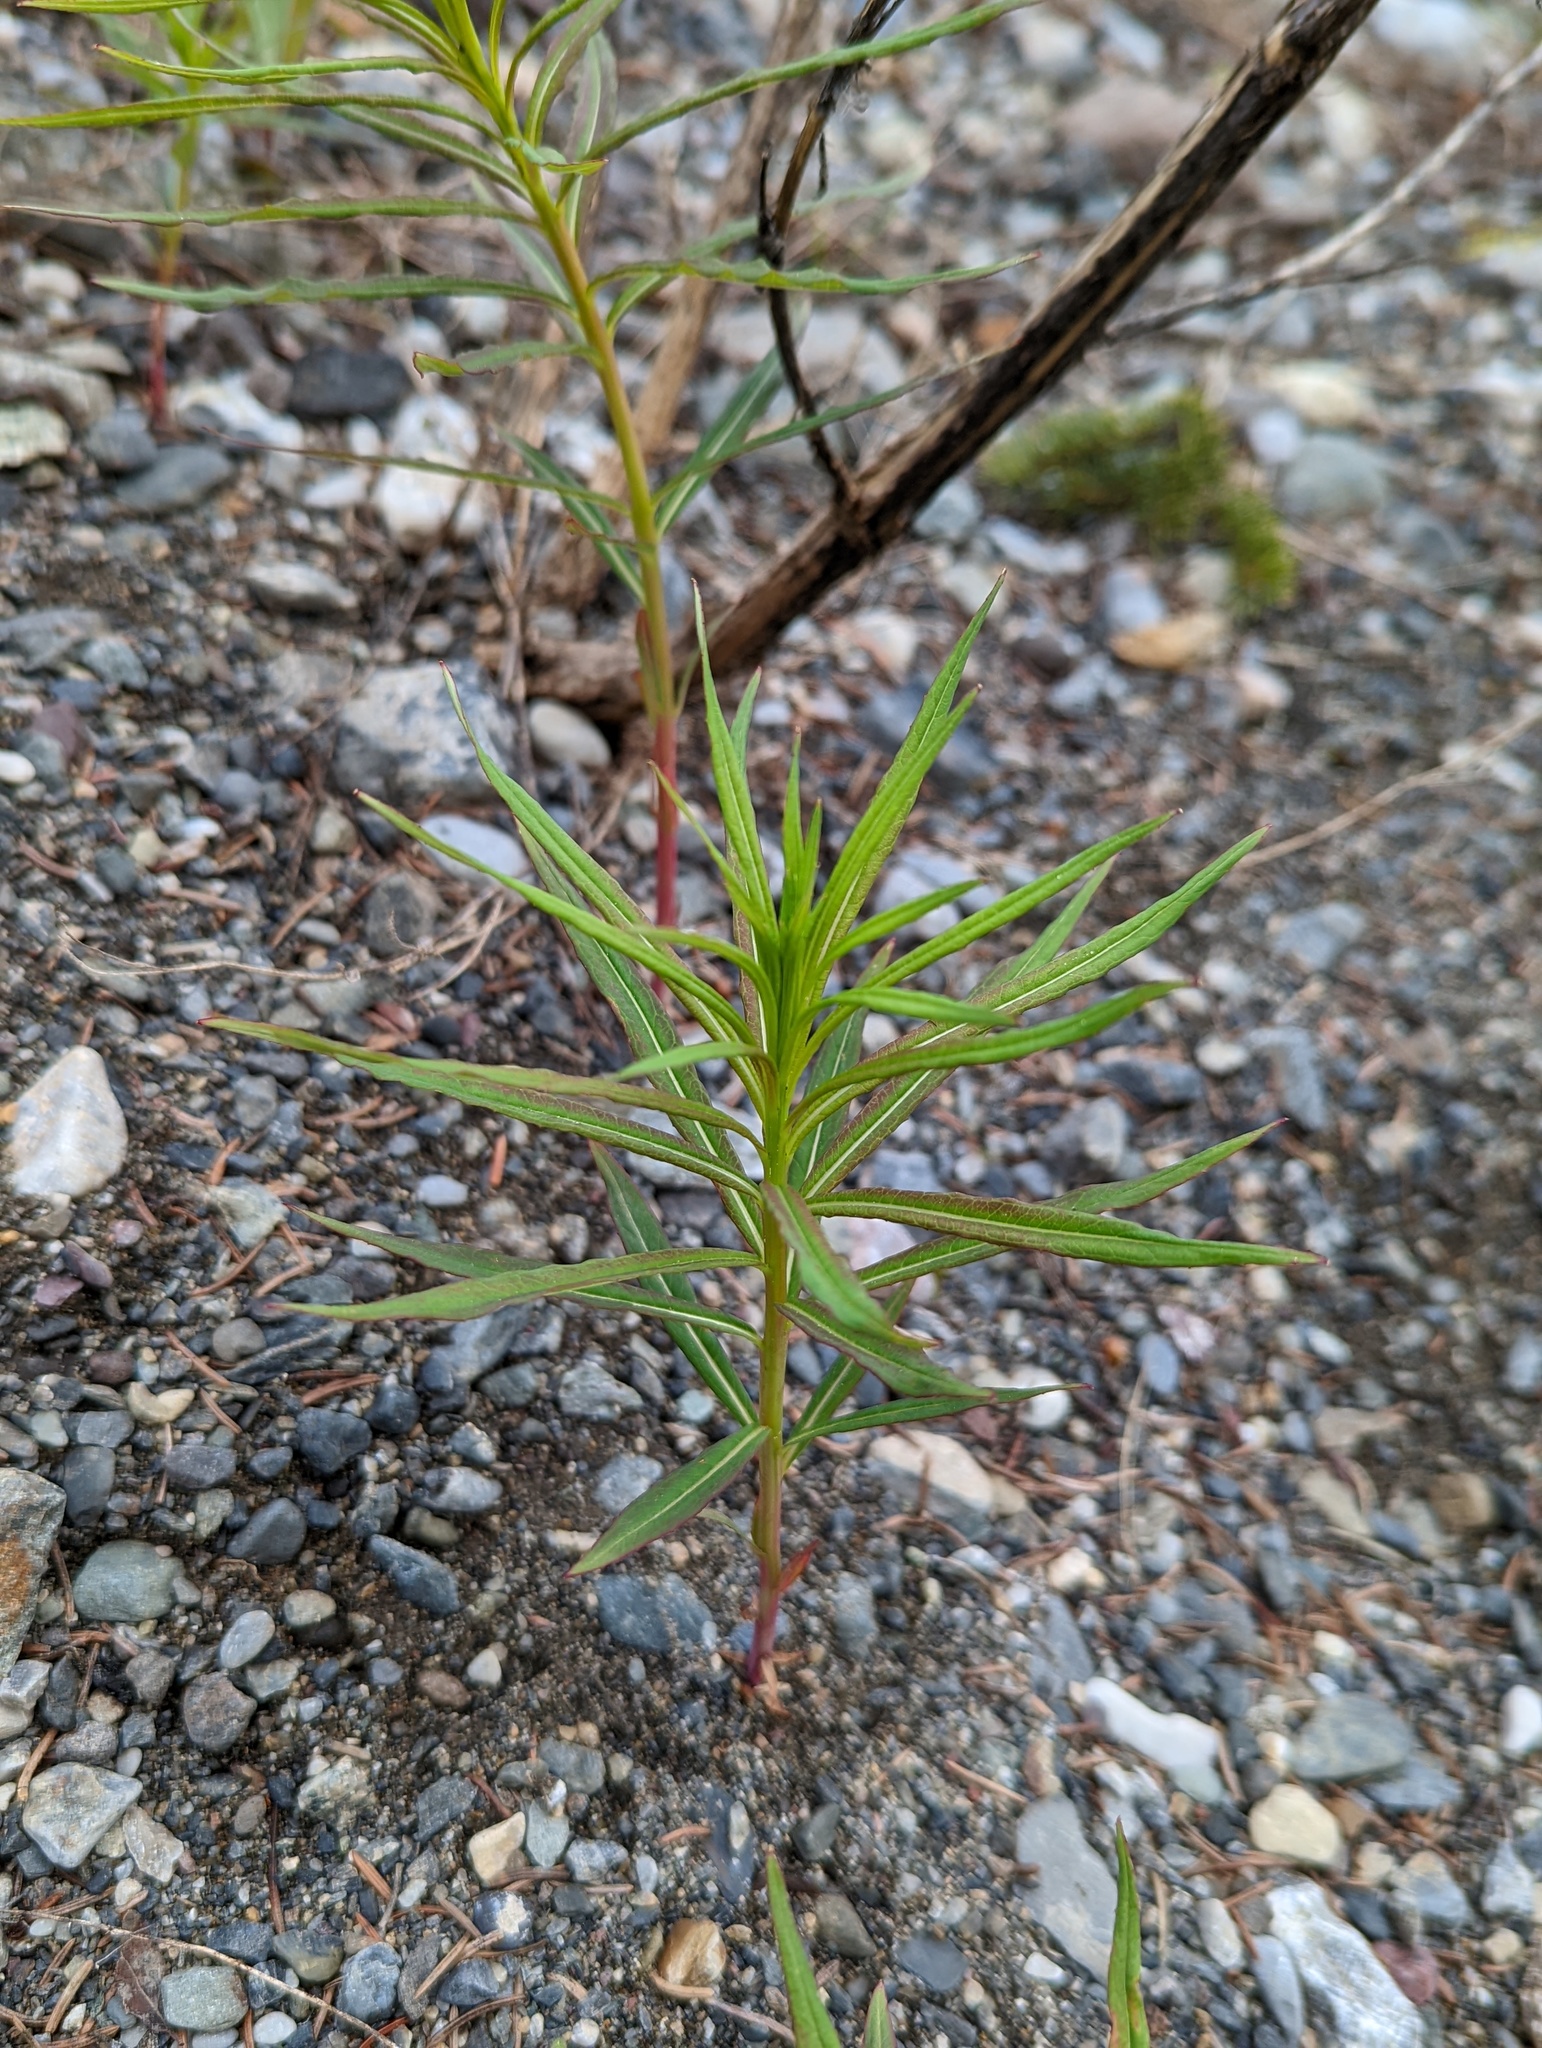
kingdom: Plantae
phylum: Tracheophyta
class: Magnoliopsida
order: Myrtales
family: Onagraceae
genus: Chamaenerion
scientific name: Chamaenerion angustifolium
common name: Fireweed
